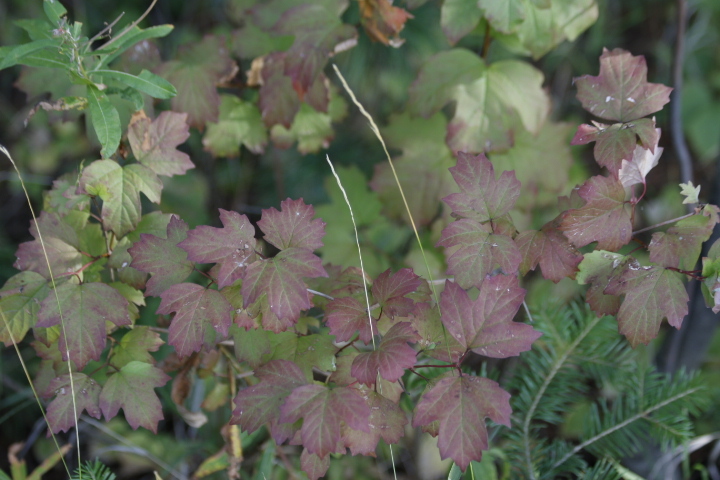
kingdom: Plantae
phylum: Tracheophyta
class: Magnoliopsida
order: Dipsacales
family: Viburnaceae
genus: Viburnum
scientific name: Viburnum opulus
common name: Guelder-rose
